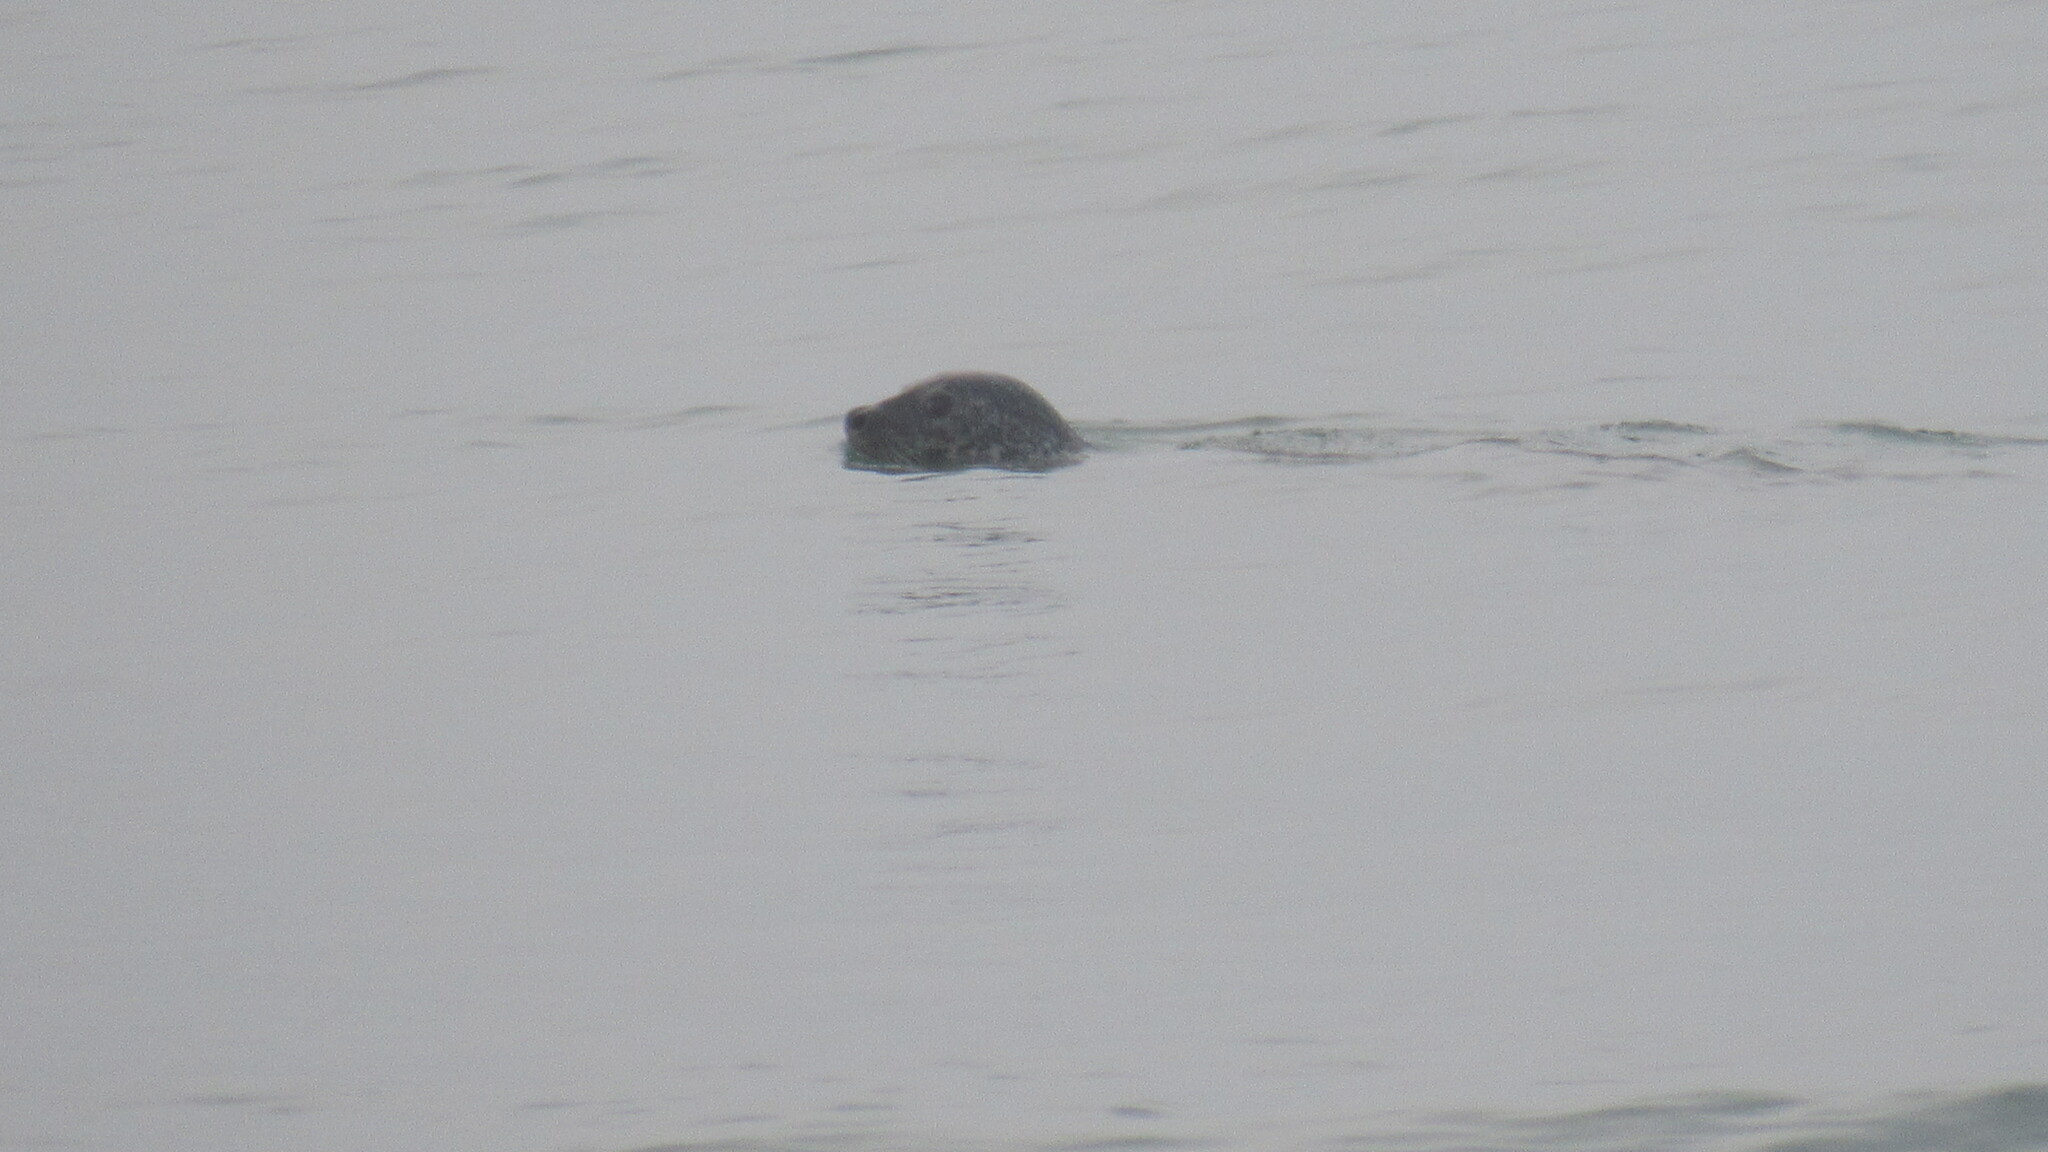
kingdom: Animalia
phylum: Chordata
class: Mammalia
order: Carnivora
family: Phocidae
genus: Phoca
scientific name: Phoca vitulina
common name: Harbor seal
